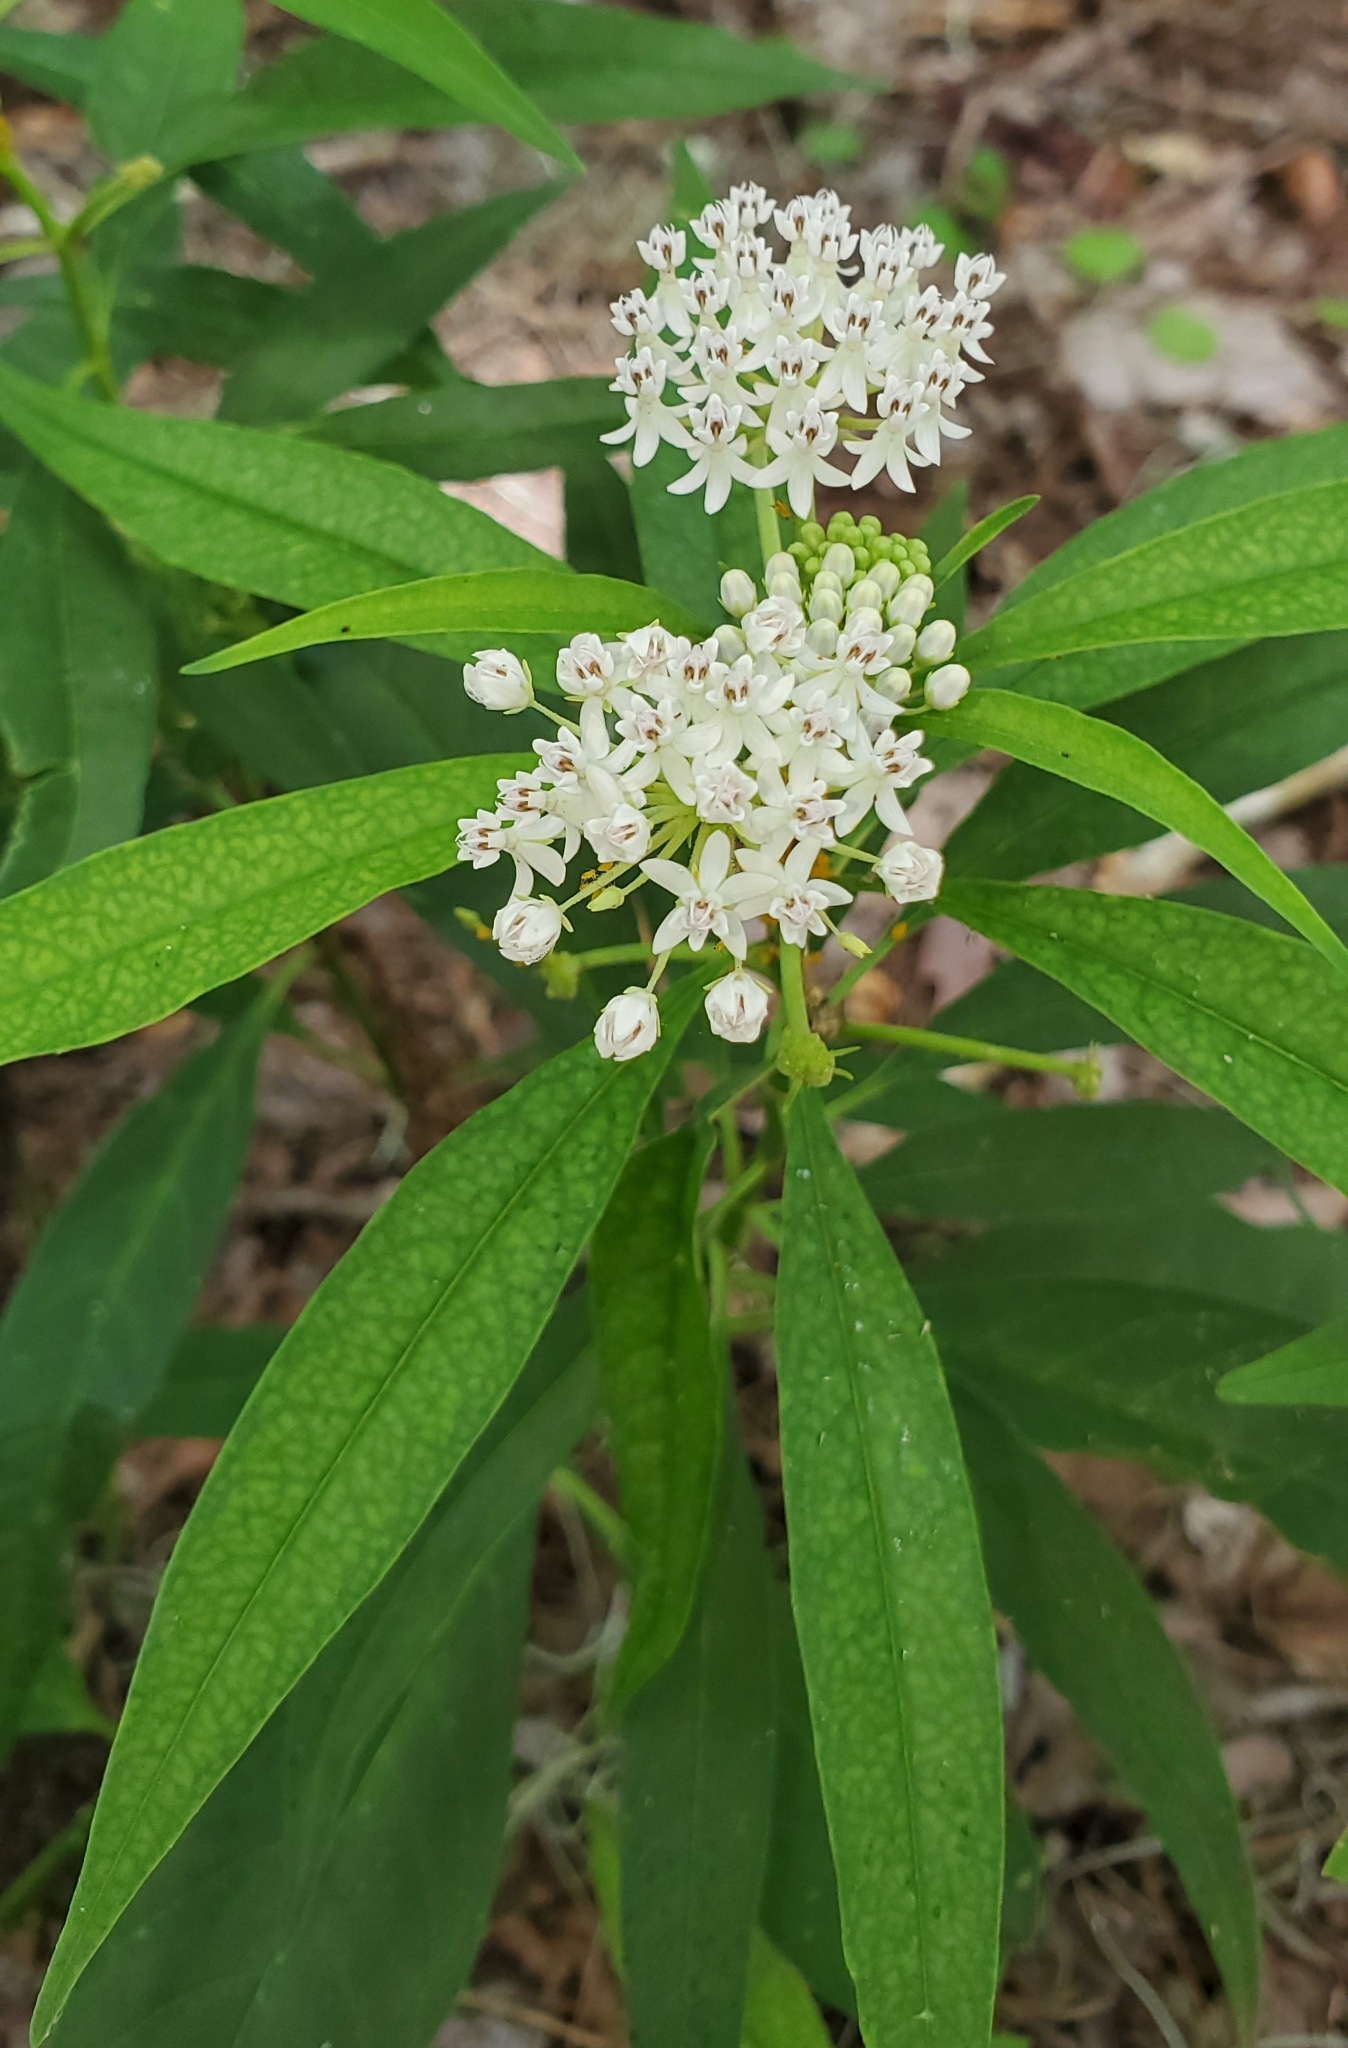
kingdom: Plantae
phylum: Tracheophyta
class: Magnoliopsida
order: Gentianales
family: Apocynaceae
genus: Asclepias
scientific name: Asclepias perennis
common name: Smooth-seed milkweed
